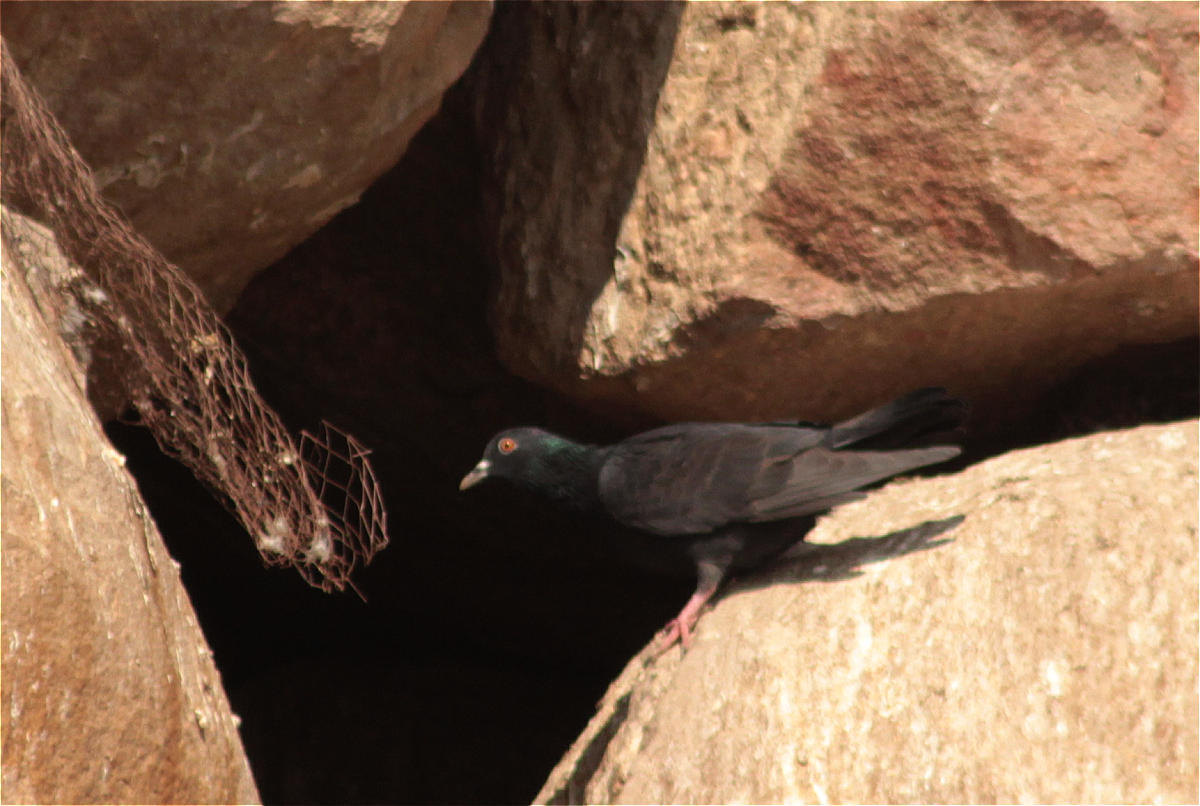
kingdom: Animalia
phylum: Chordata
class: Aves
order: Columbiformes
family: Columbidae
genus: Columba
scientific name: Columba livia
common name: Rock pigeon
